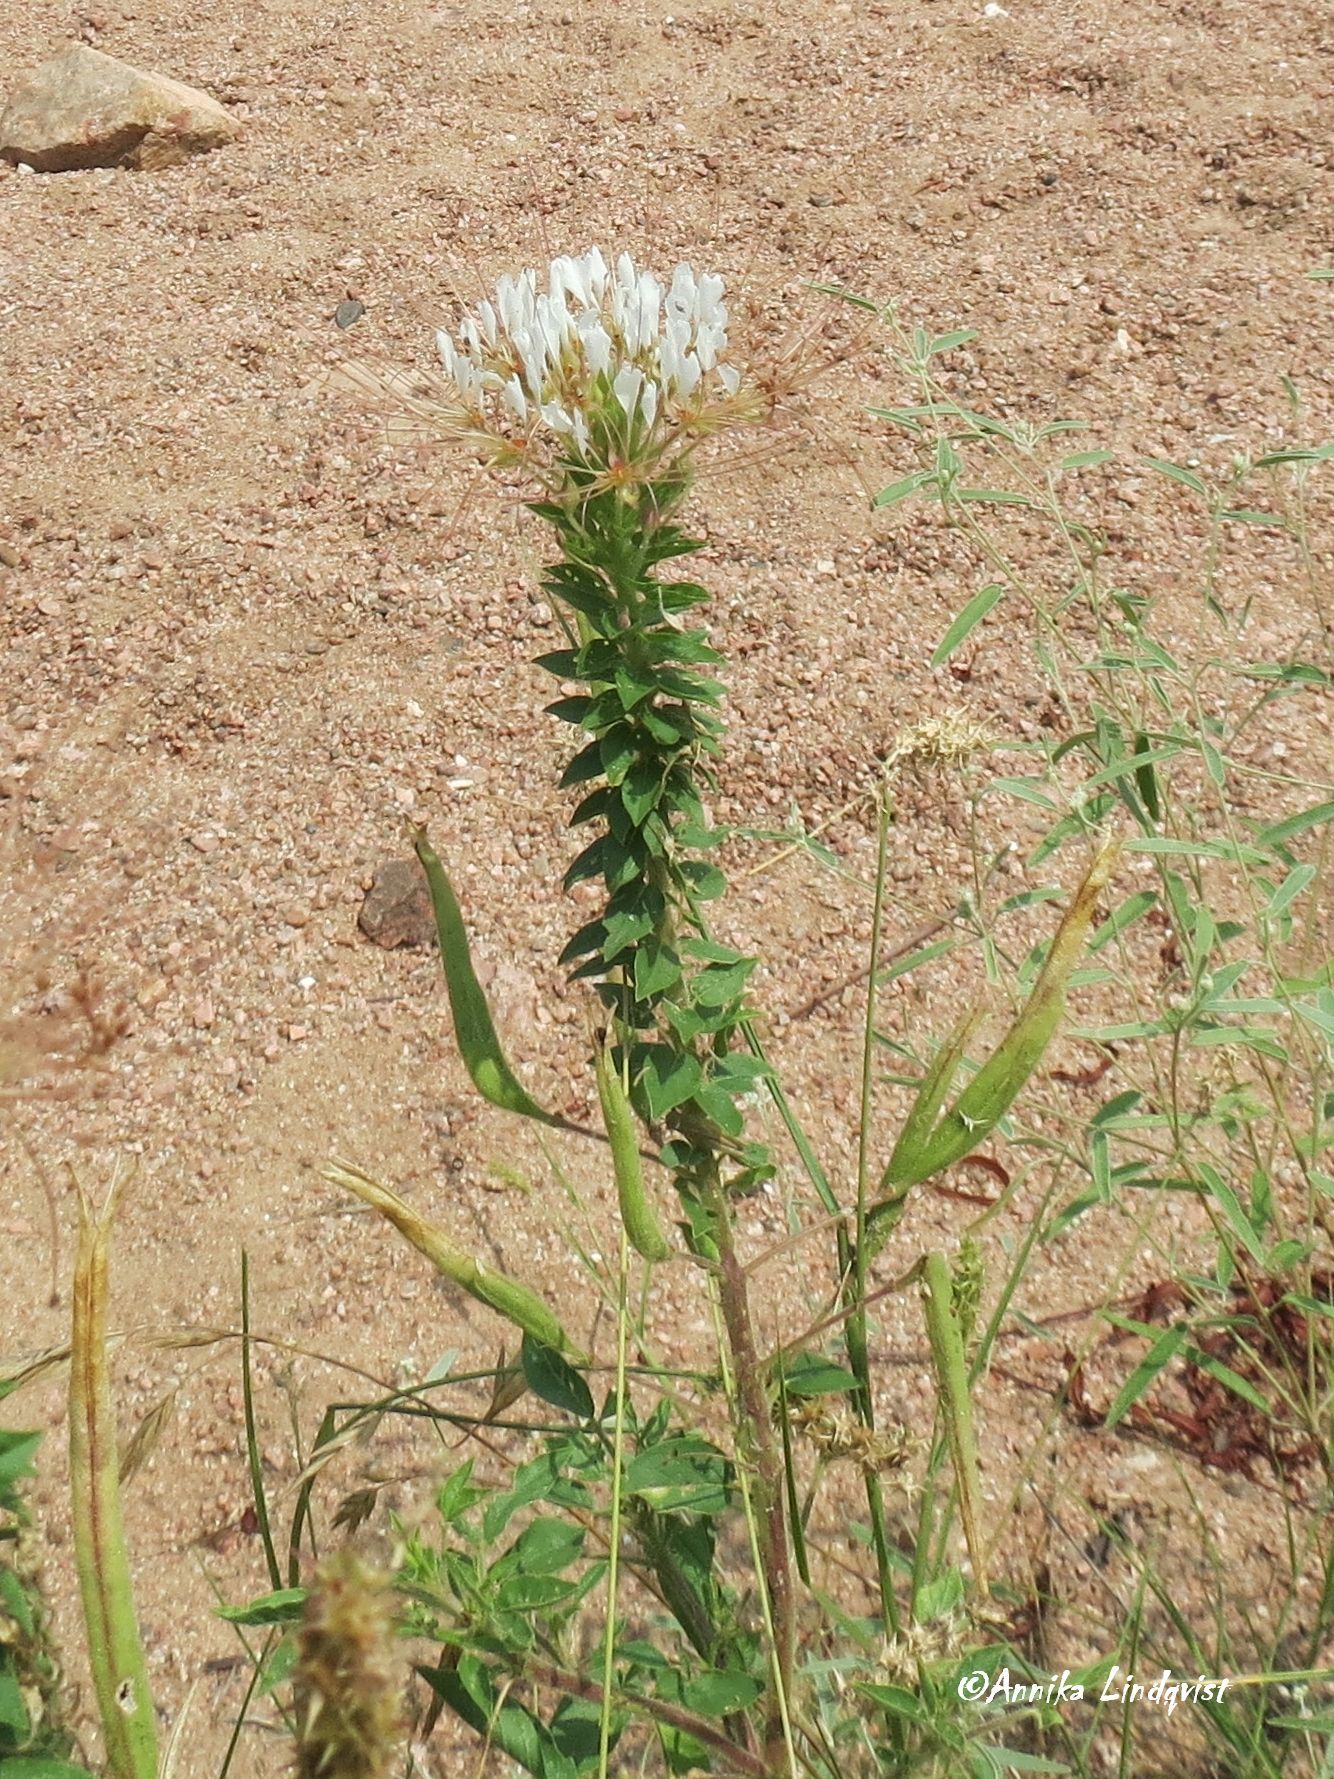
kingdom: Plantae
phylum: Tracheophyta
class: Magnoliopsida
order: Brassicales
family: Cleomaceae
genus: Polanisia
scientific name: Polanisia dodecandra
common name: Clammyweed
